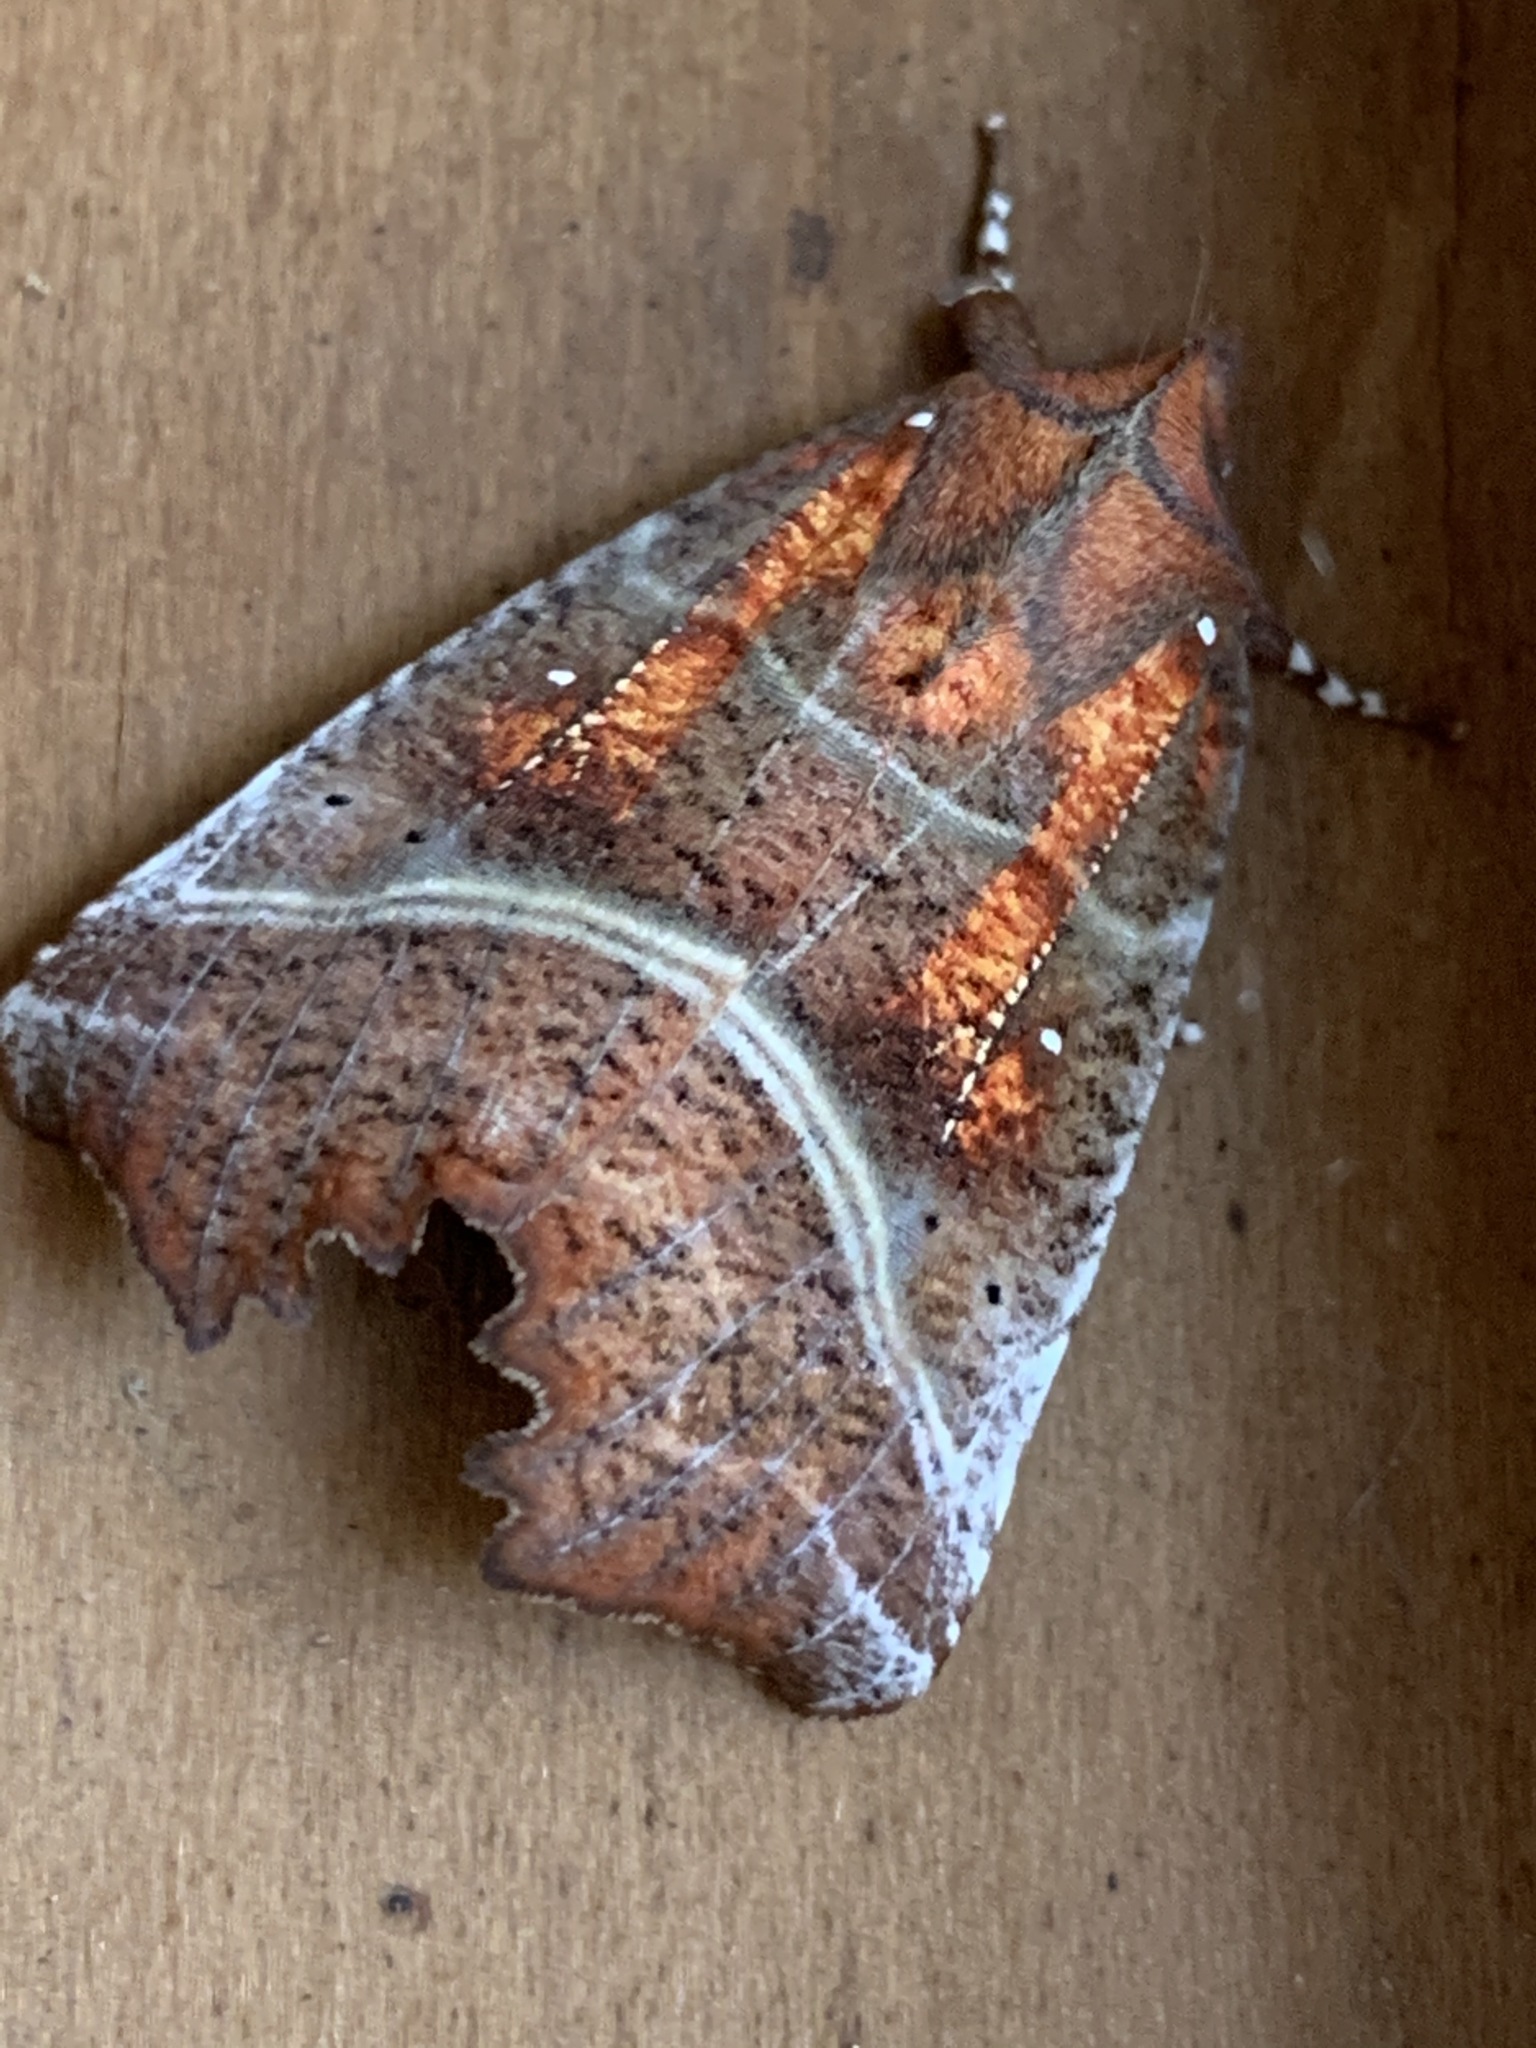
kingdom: Animalia
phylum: Arthropoda
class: Insecta
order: Lepidoptera
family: Erebidae
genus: Scoliopteryx
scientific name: Scoliopteryx libatrix
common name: Herald
